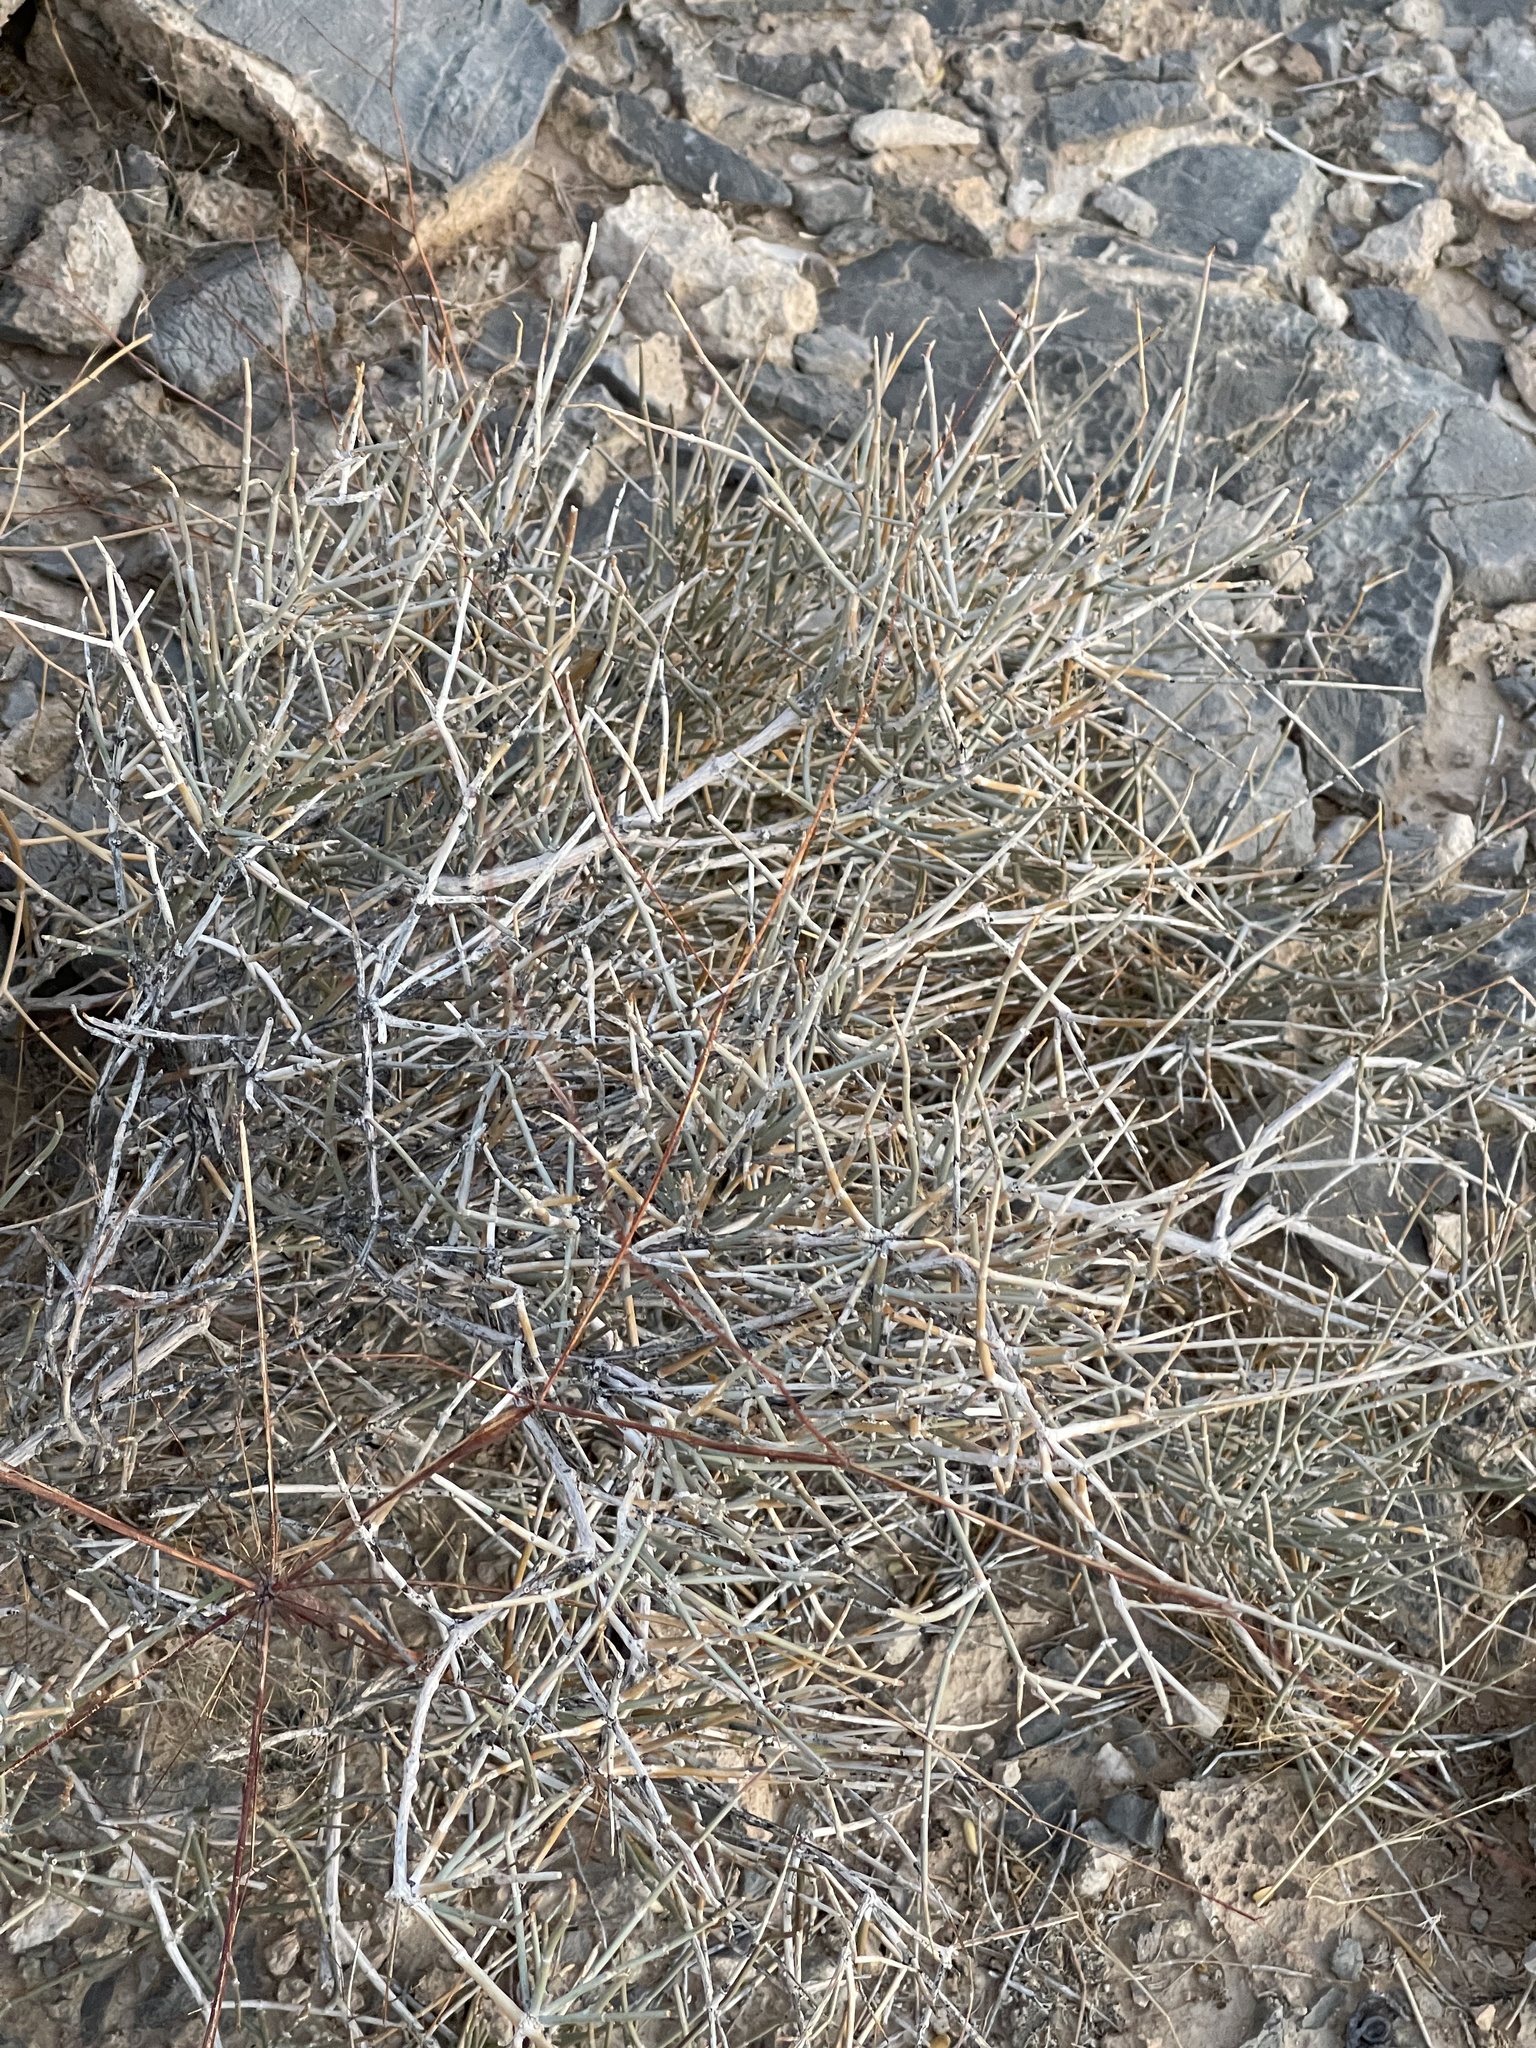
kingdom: Plantae
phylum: Tracheophyta
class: Gnetopsida
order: Ephedrales
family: Ephedraceae
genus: Ephedra
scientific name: Ephedra nevadensis
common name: Gray ephedra
